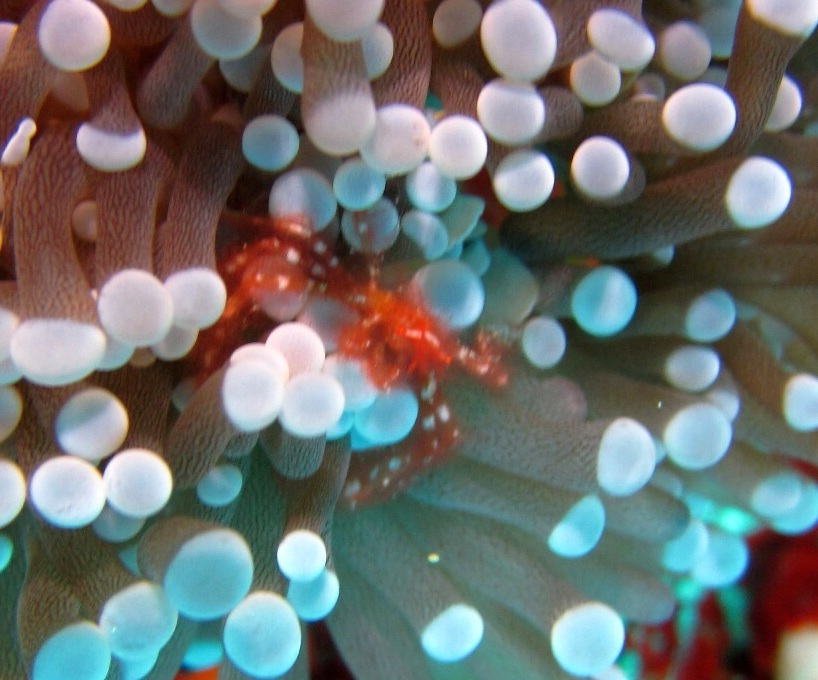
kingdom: Animalia
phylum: Arthropoda
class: Malacostraca
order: Decapoda
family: Inachidae
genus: Achaeus
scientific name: Achaeus japonicus
